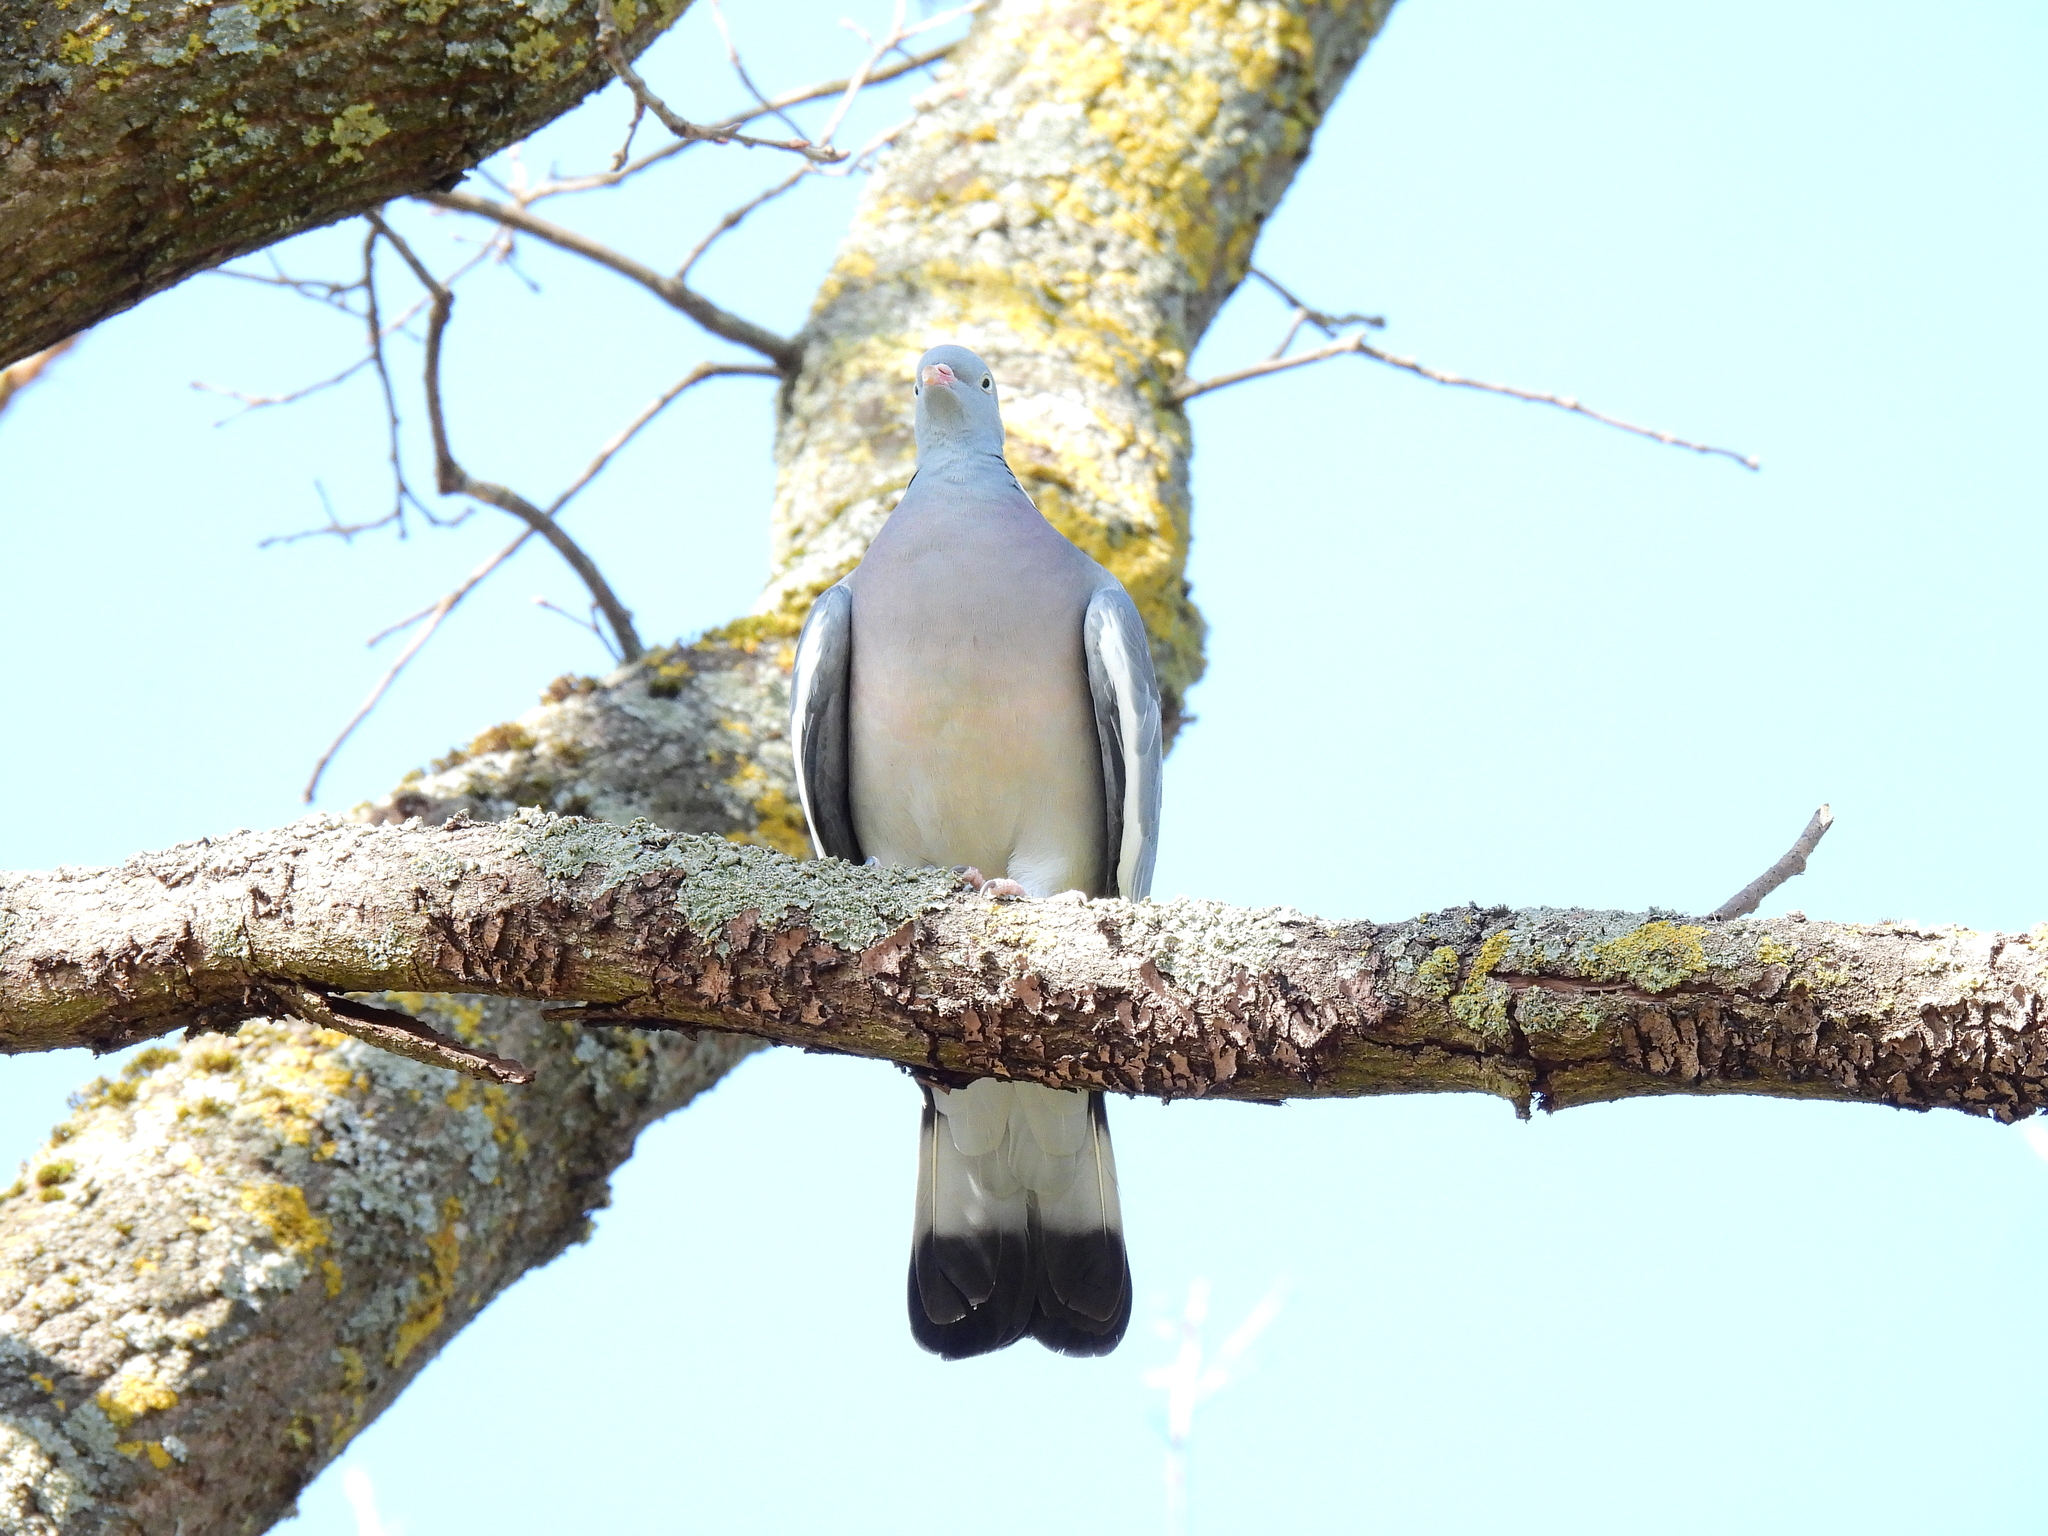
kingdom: Animalia
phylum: Chordata
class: Aves
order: Columbiformes
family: Columbidae
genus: Columba
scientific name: Columba palumbus
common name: Common wood pigeon
